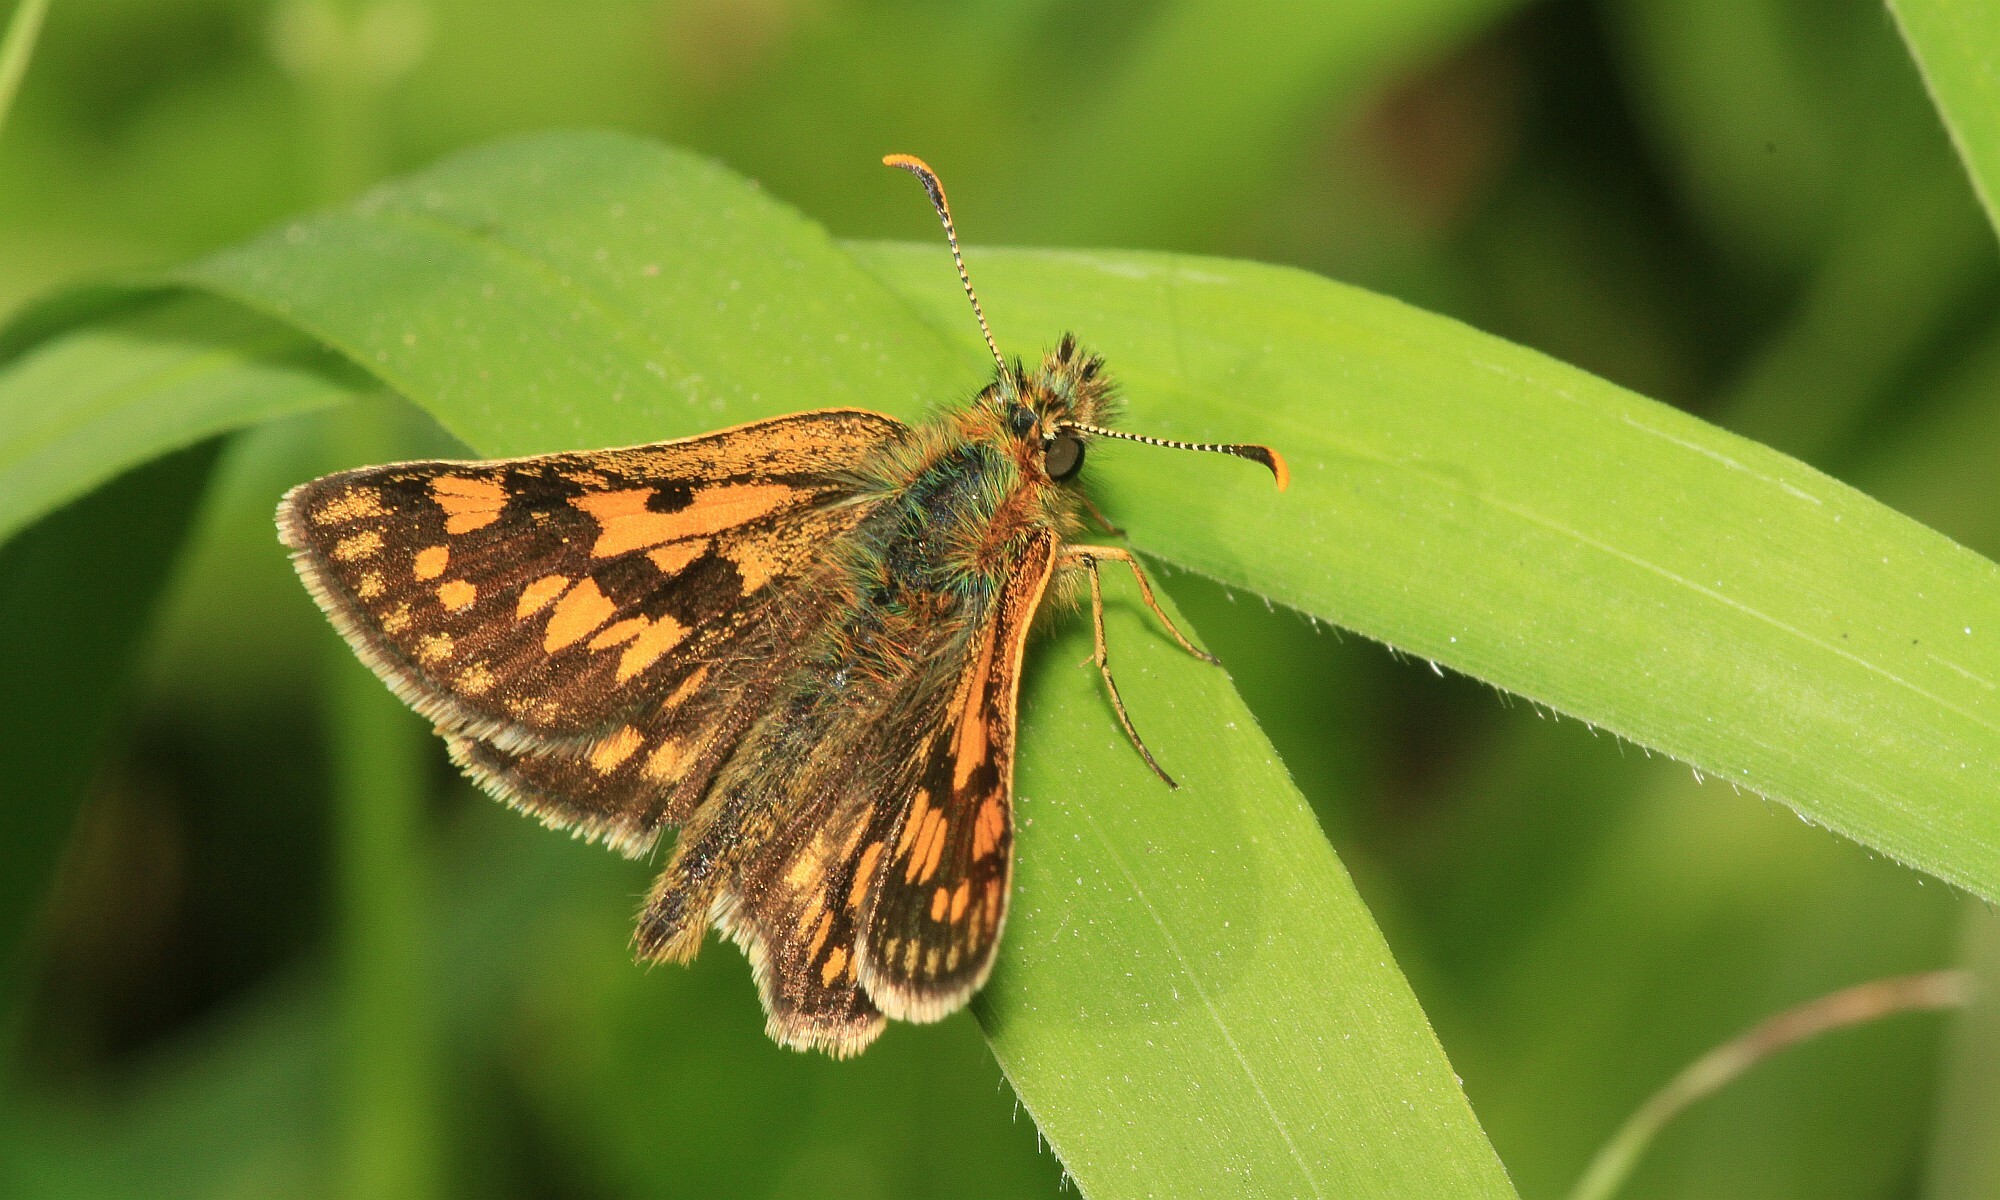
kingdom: Animalia
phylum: Arthropoda
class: Insecta
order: Lepidoptera
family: Hesperiidae
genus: Carterocephalus
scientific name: Carterocephalus palaemon
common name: Chequered skipper
